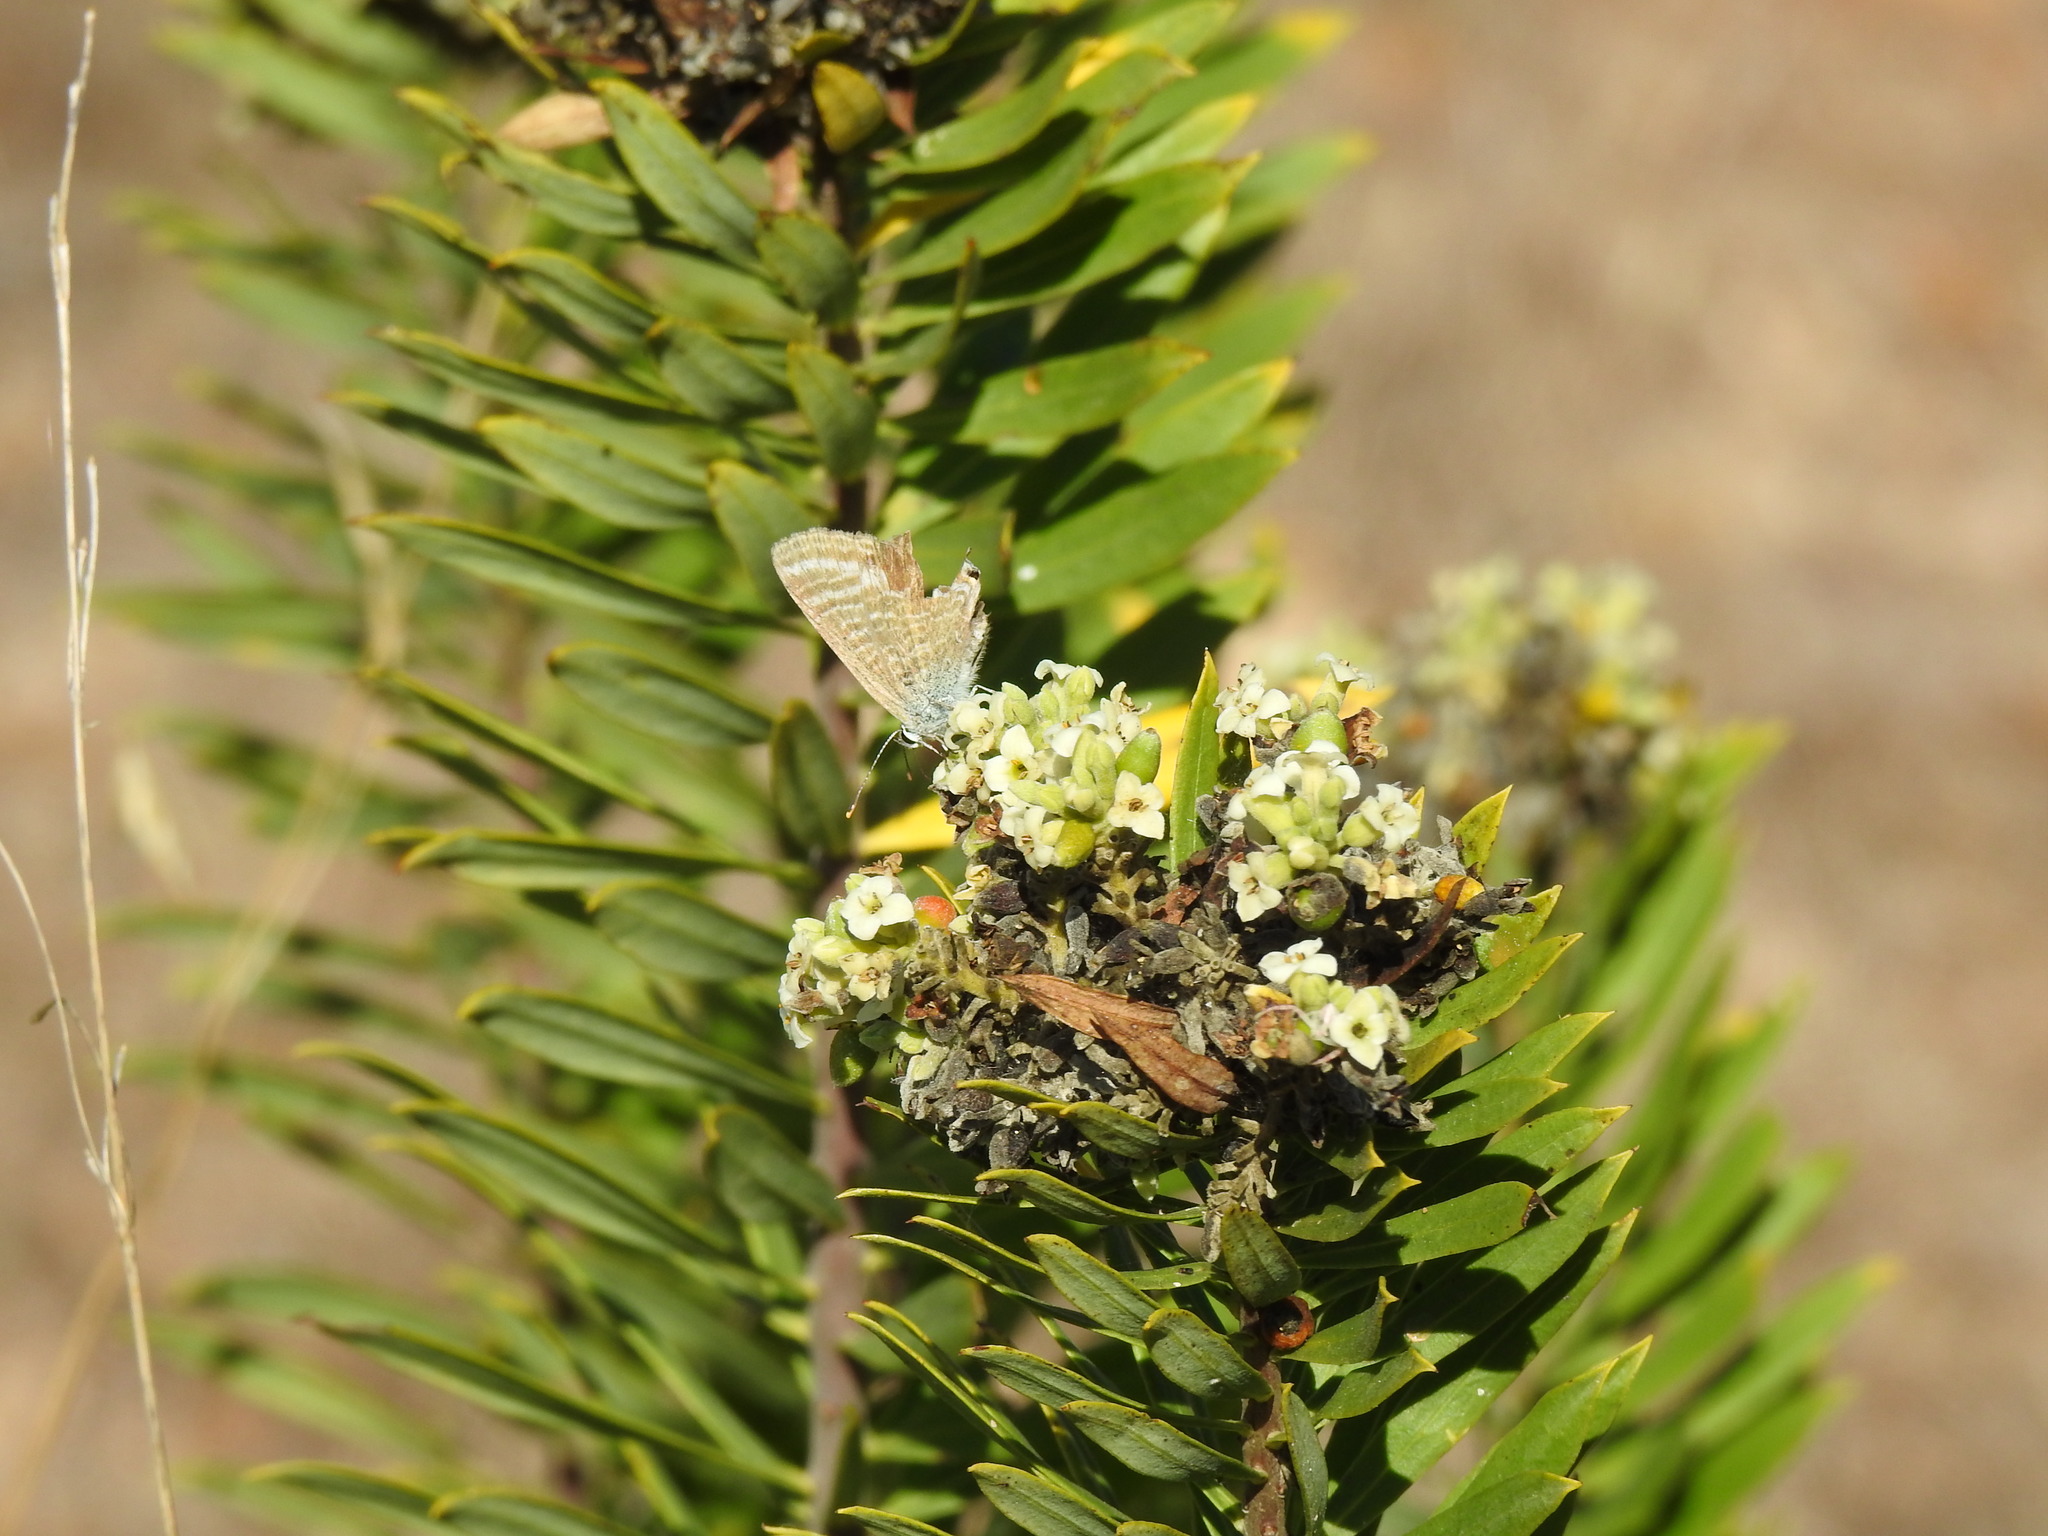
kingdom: Animalia
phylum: Arthropoda
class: Insecta
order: Lepidoptera
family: Lycaenidae
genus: Lampides
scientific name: Lampides boeticus
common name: Long-tailed blue
